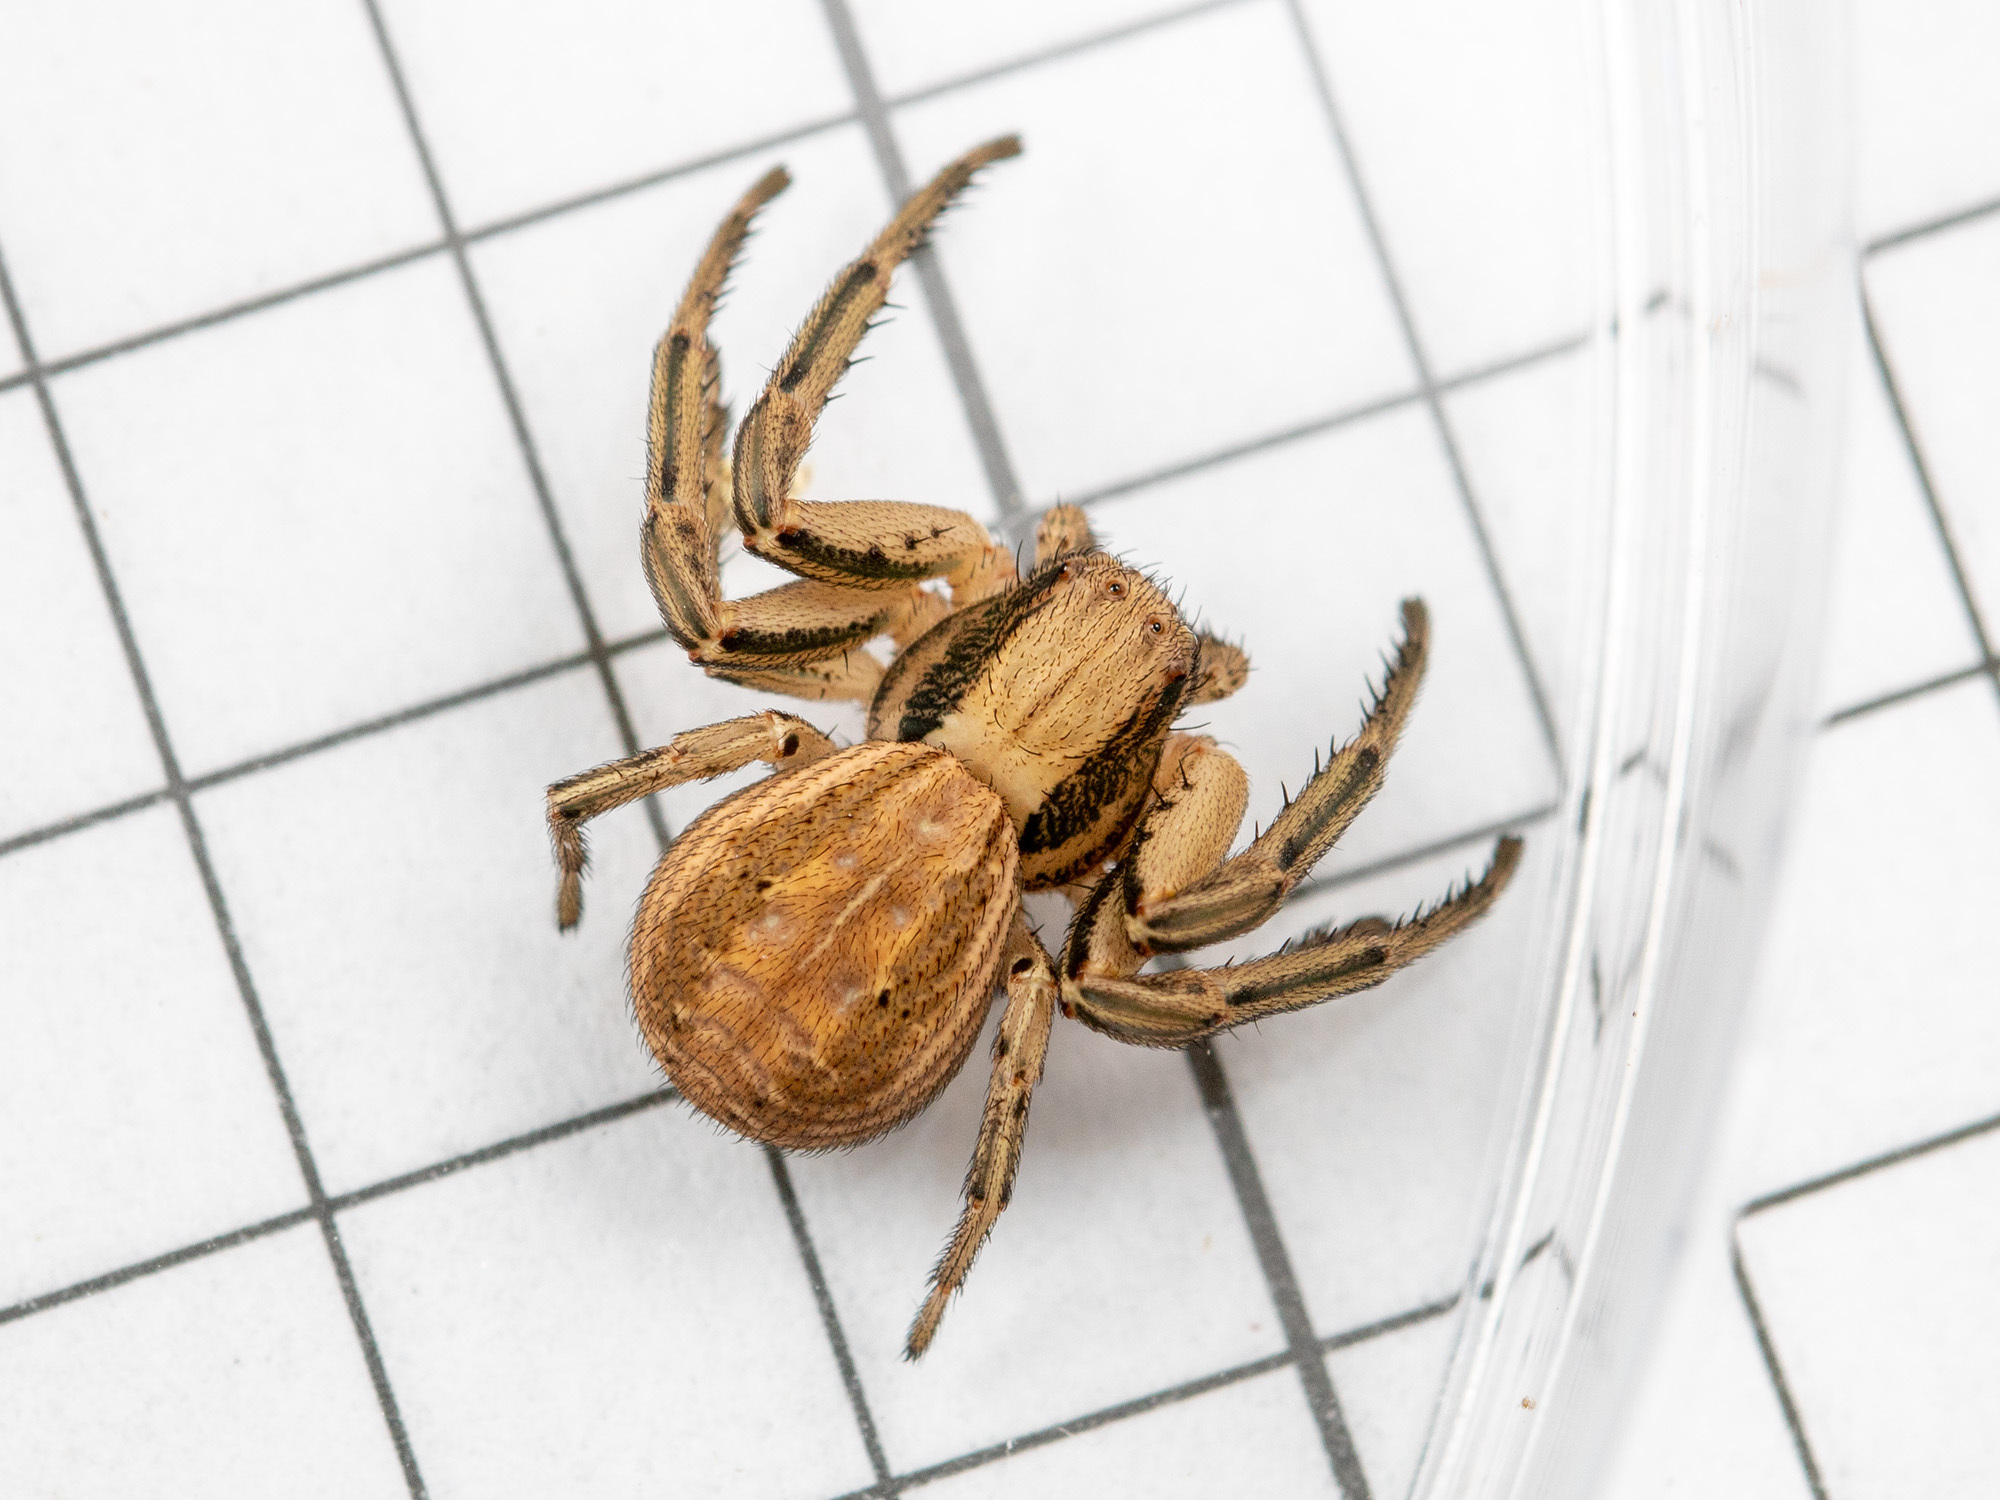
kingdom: Animalia
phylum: Arthropoda
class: Arachnida
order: Araneae
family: Thomisidae
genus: Spiracme
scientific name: Spiracme striatipes
